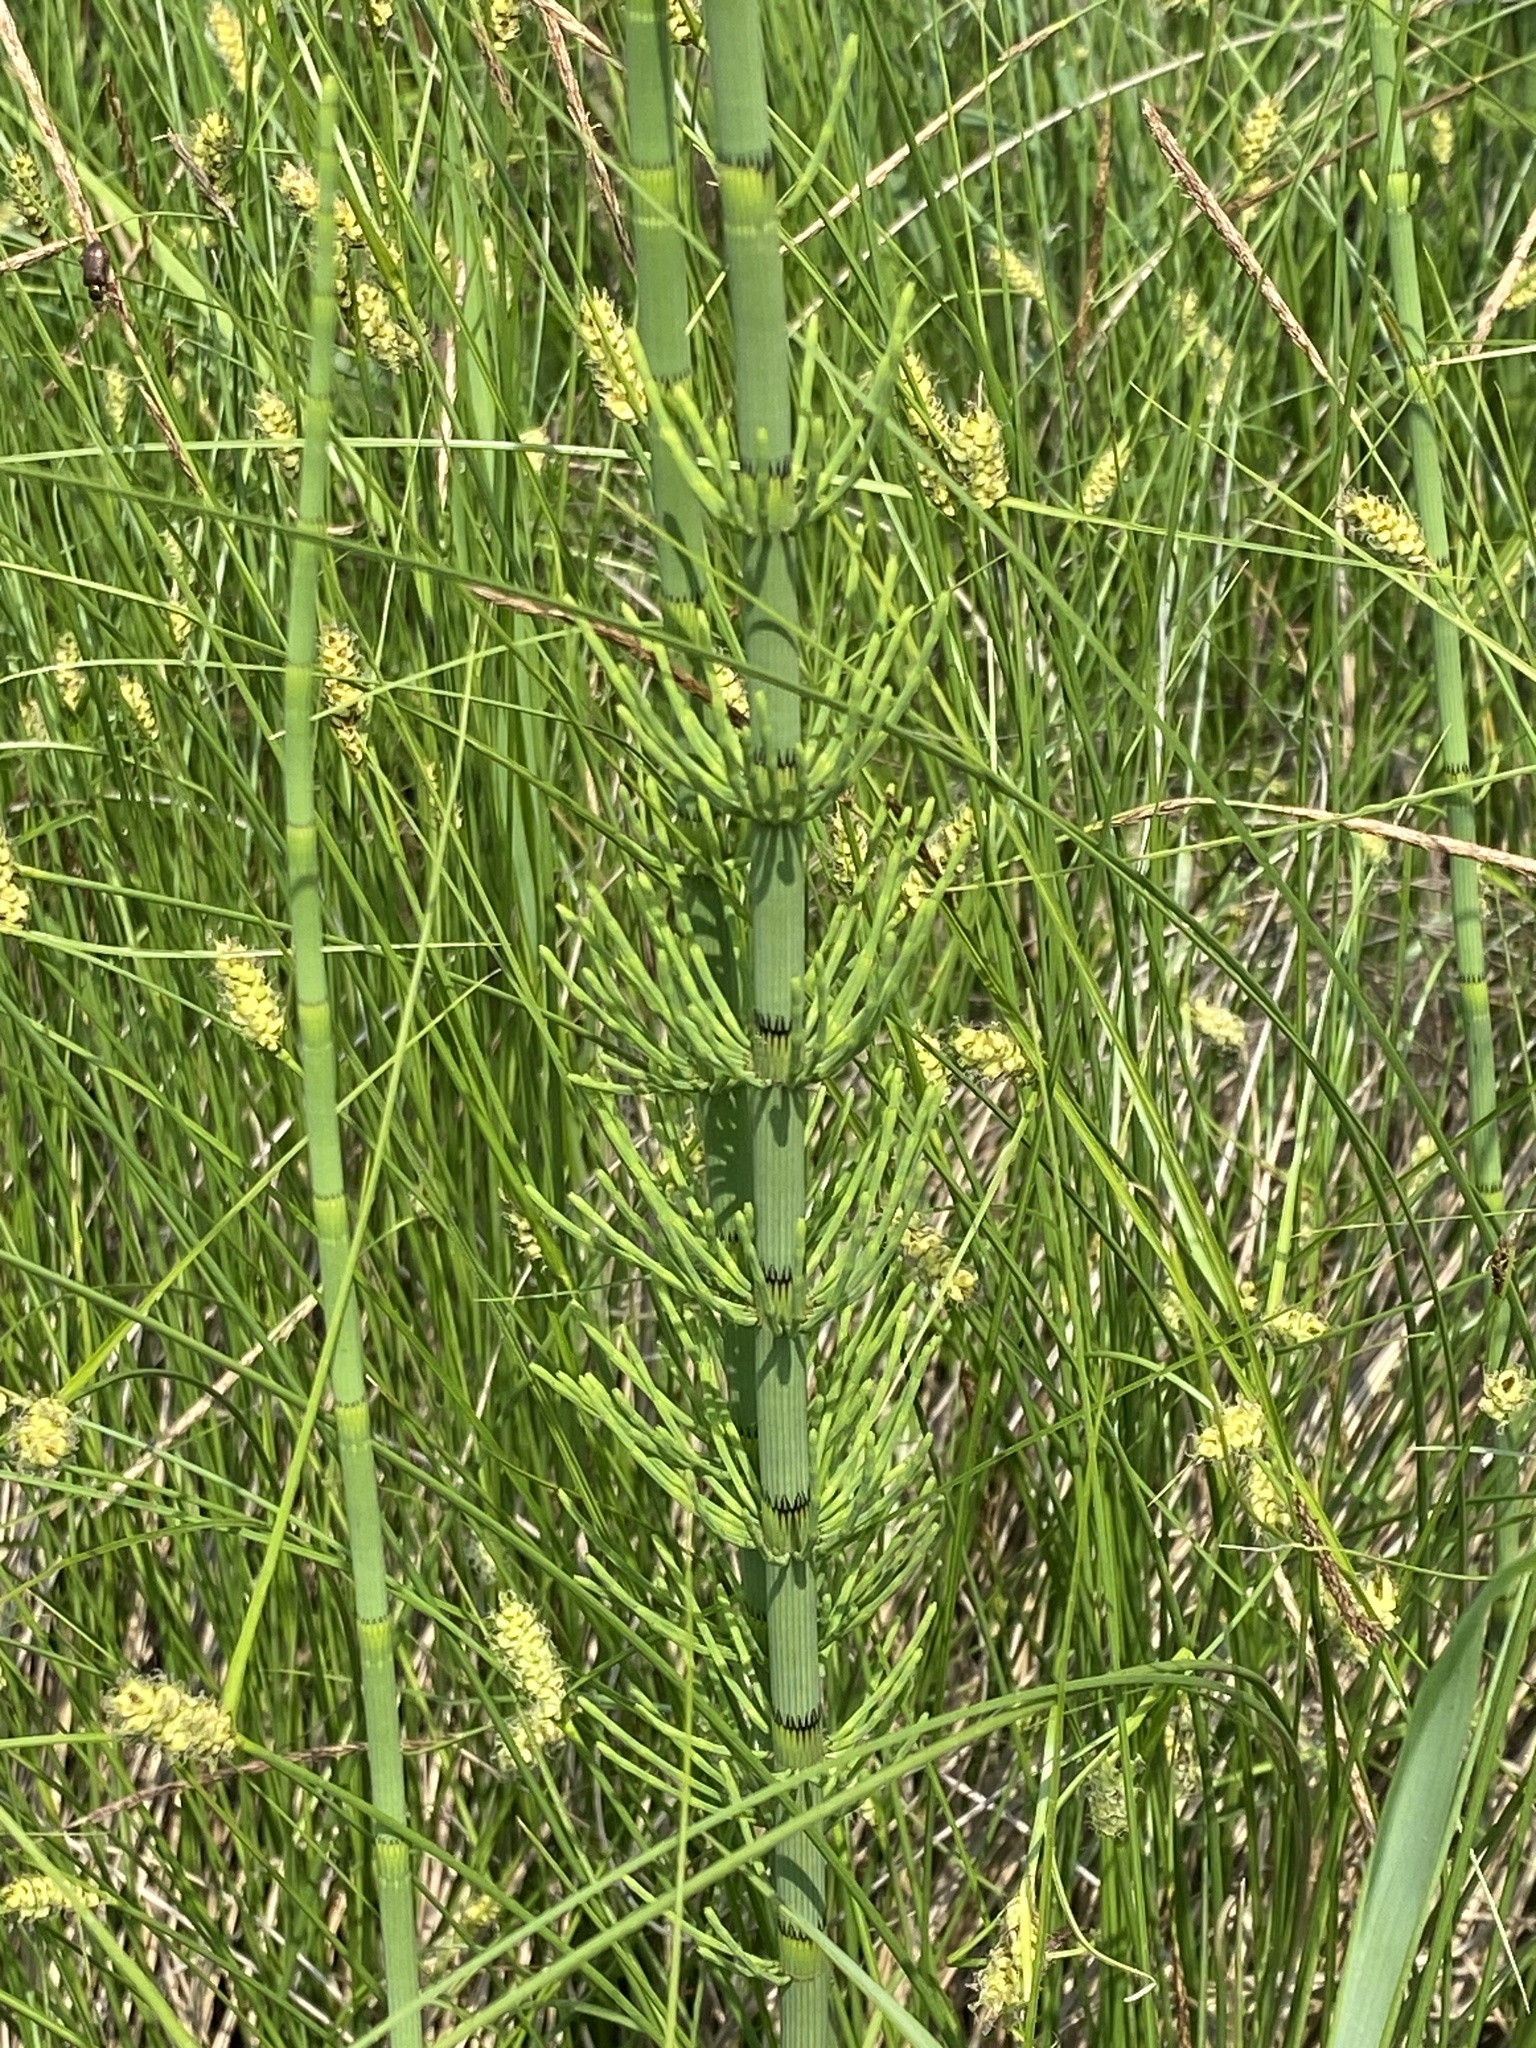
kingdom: Plantae
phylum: Tracheophyta
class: Polypodiopsida
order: Equisetales
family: Equisetaceae
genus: Equisetum
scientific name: Equisetum fluviatile
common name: Water horsetail
